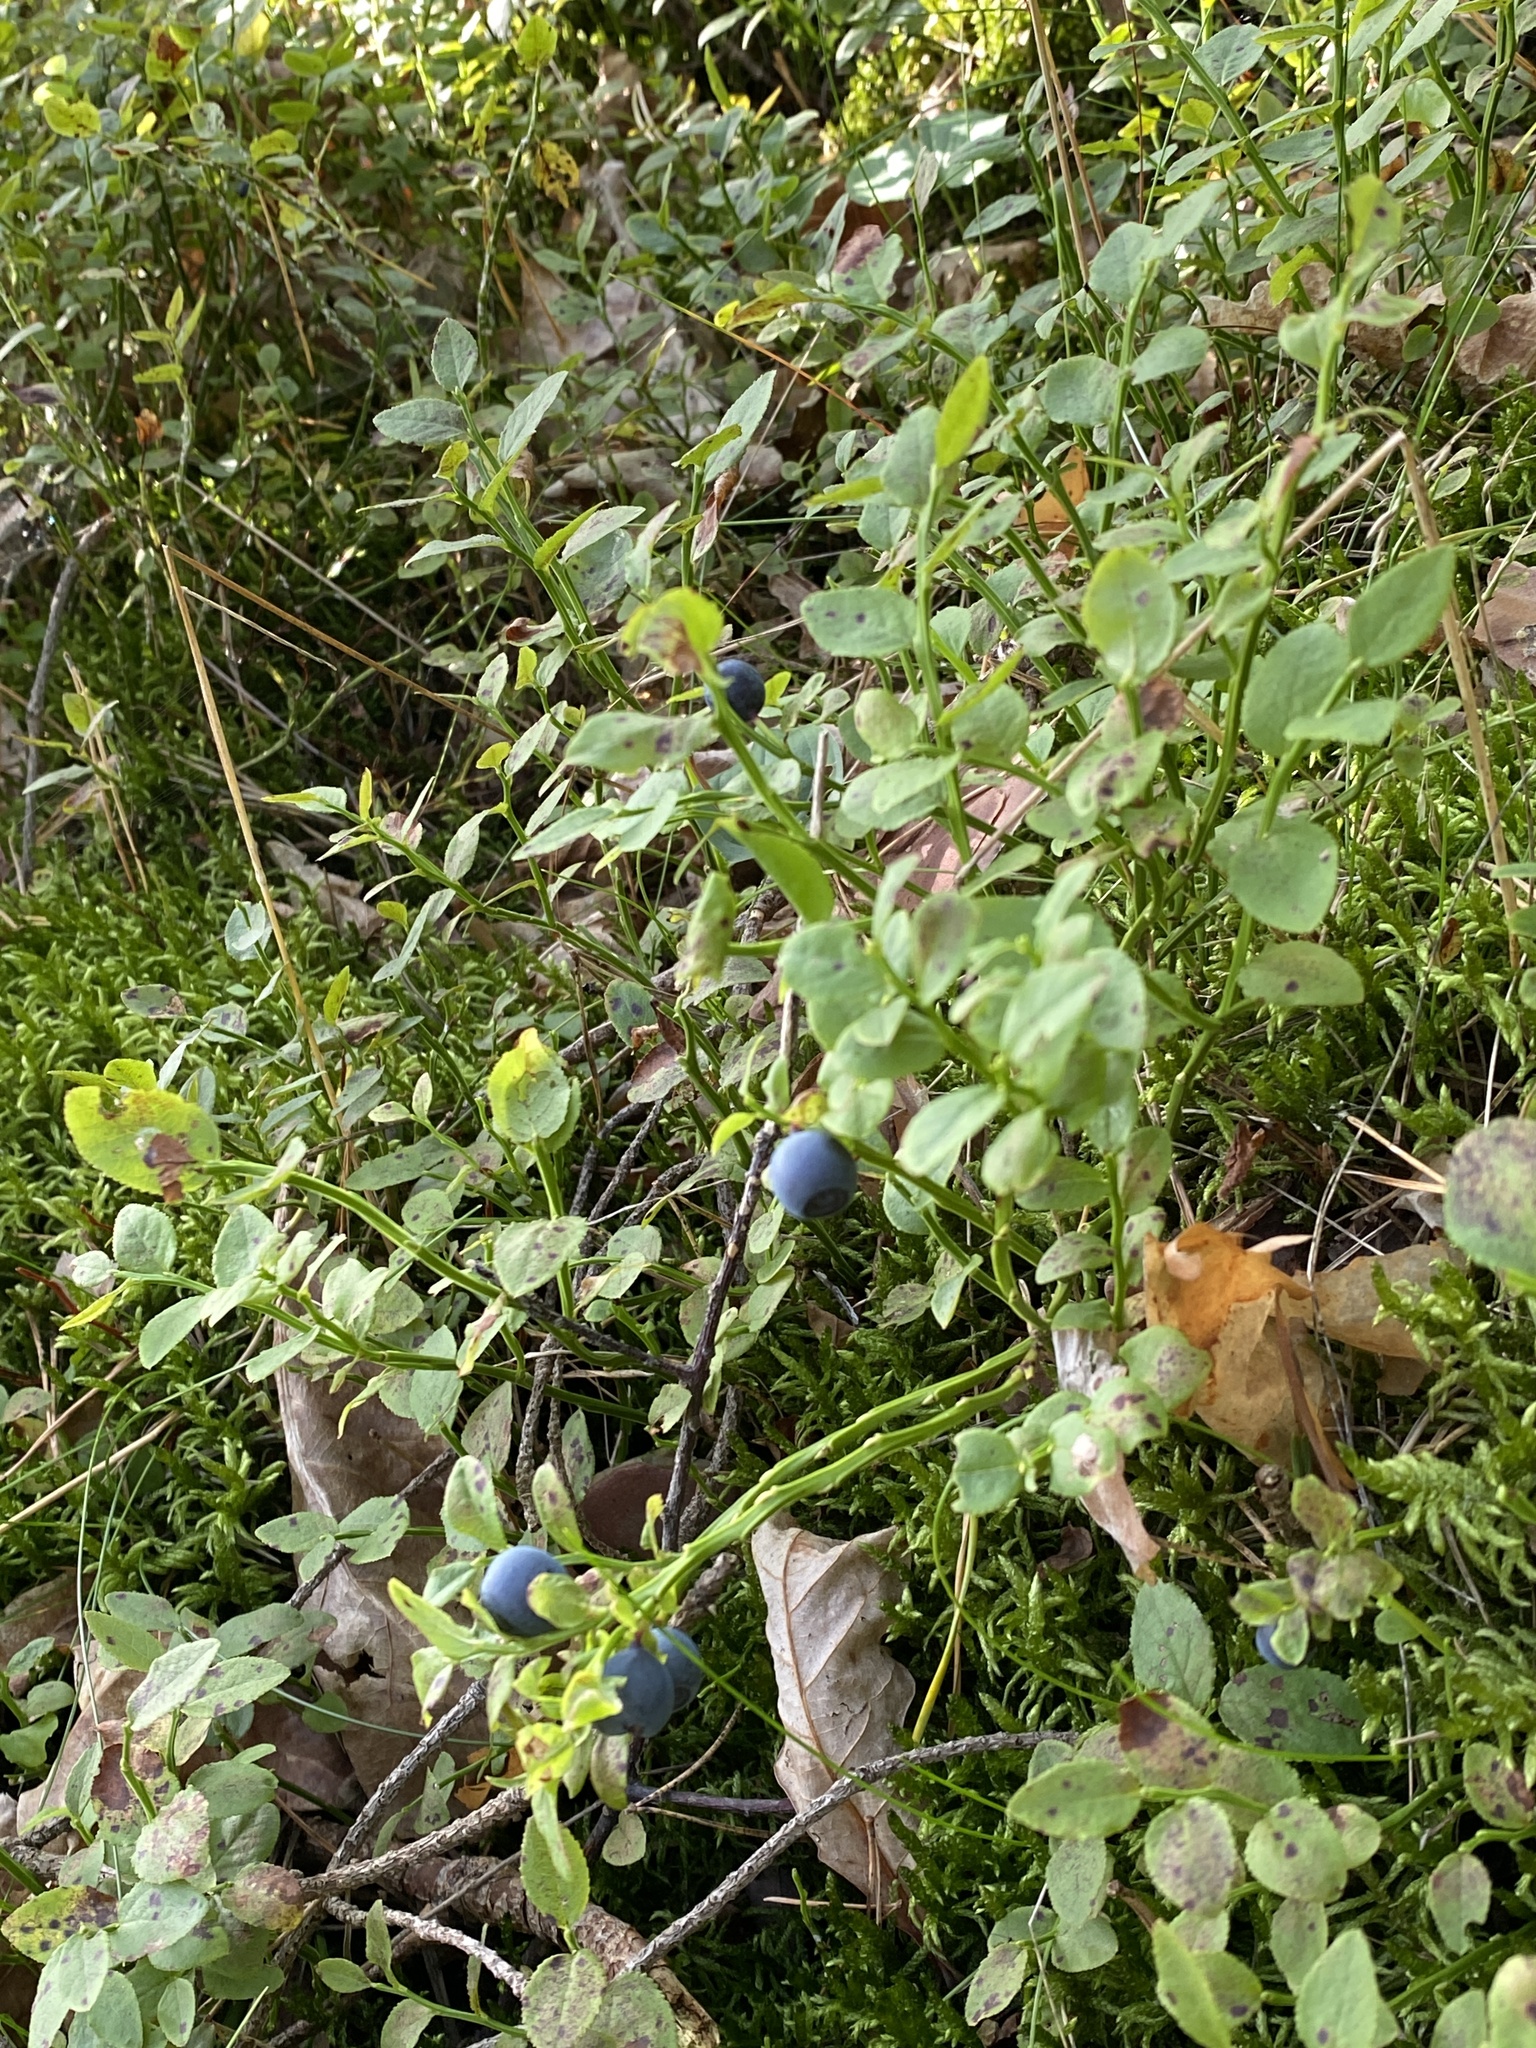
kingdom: Plantae
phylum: Tracheophyta
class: Magnoliopsida
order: Ericales
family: Ericaceae
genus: Vaccinium
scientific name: Vaccinium myrtillus
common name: Bilberry
